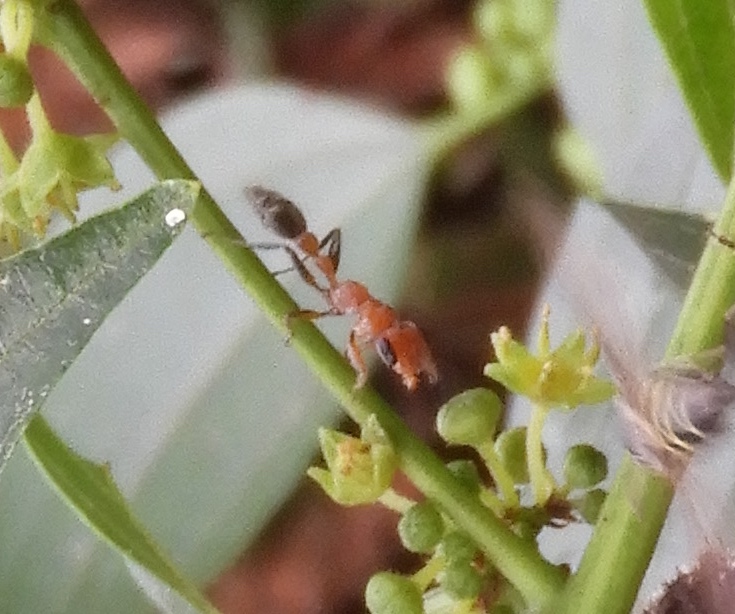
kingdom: Animalia
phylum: Arthropoda
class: Insecta
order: Hymenoptera
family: Formicidae
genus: Pseudomyrmex
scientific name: Pseudomyrmex
